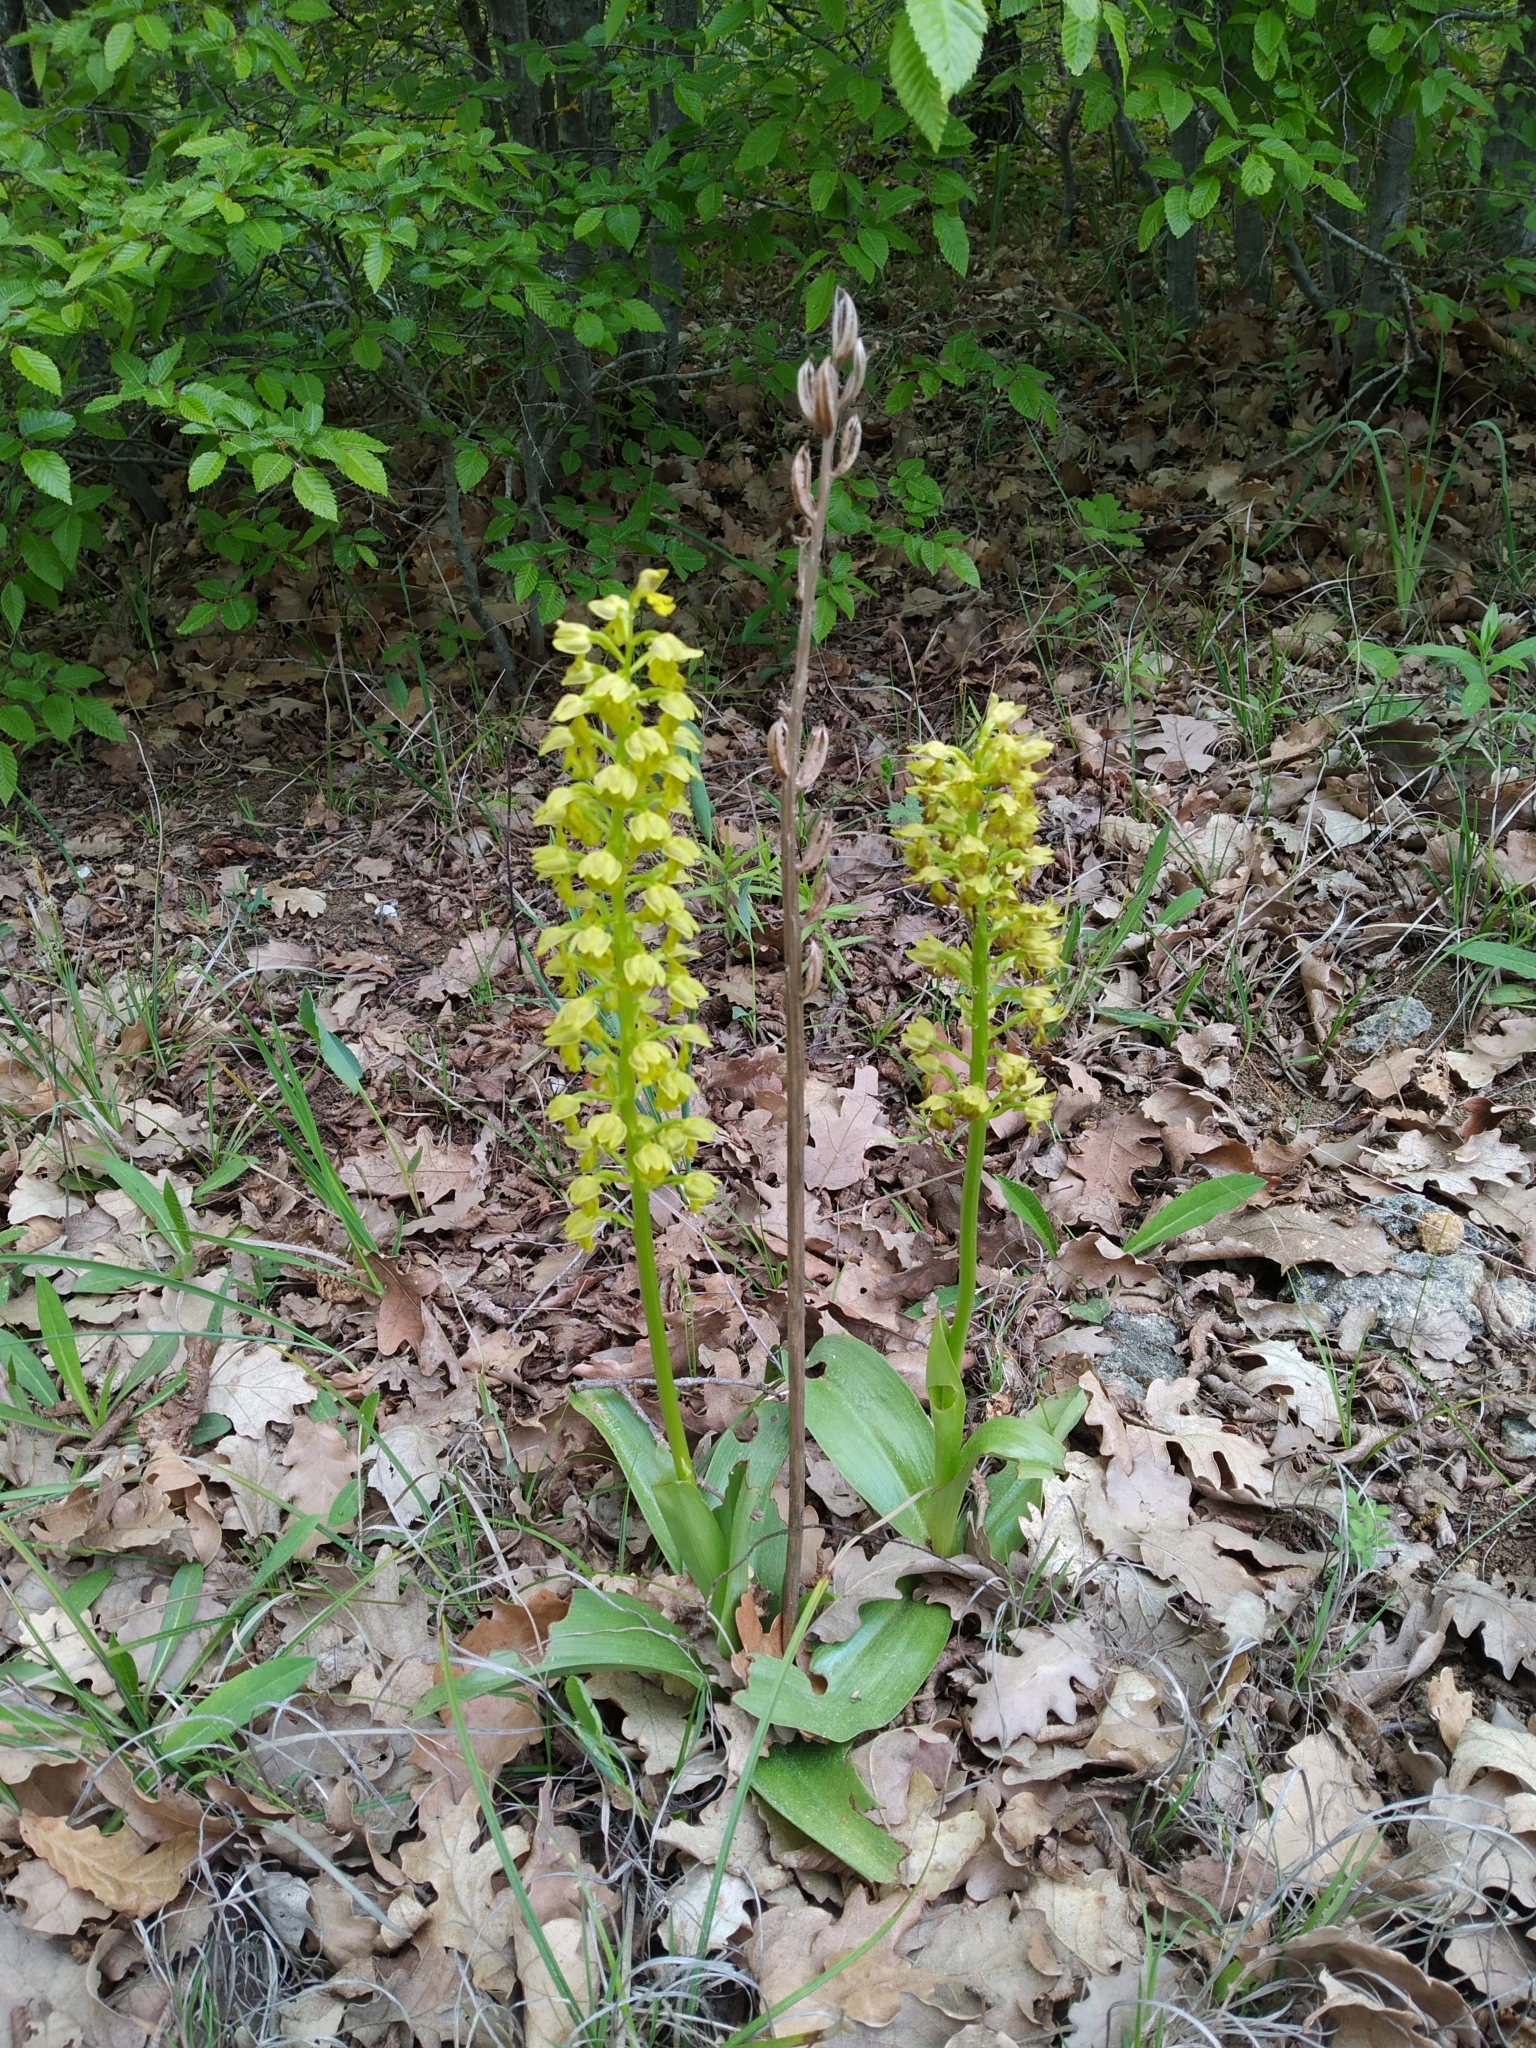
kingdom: Plantae
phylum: Tracheophyta
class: Liliopsida
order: Asparagales
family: Orchidaceae
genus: Orchis
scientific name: Orchis punctulata
